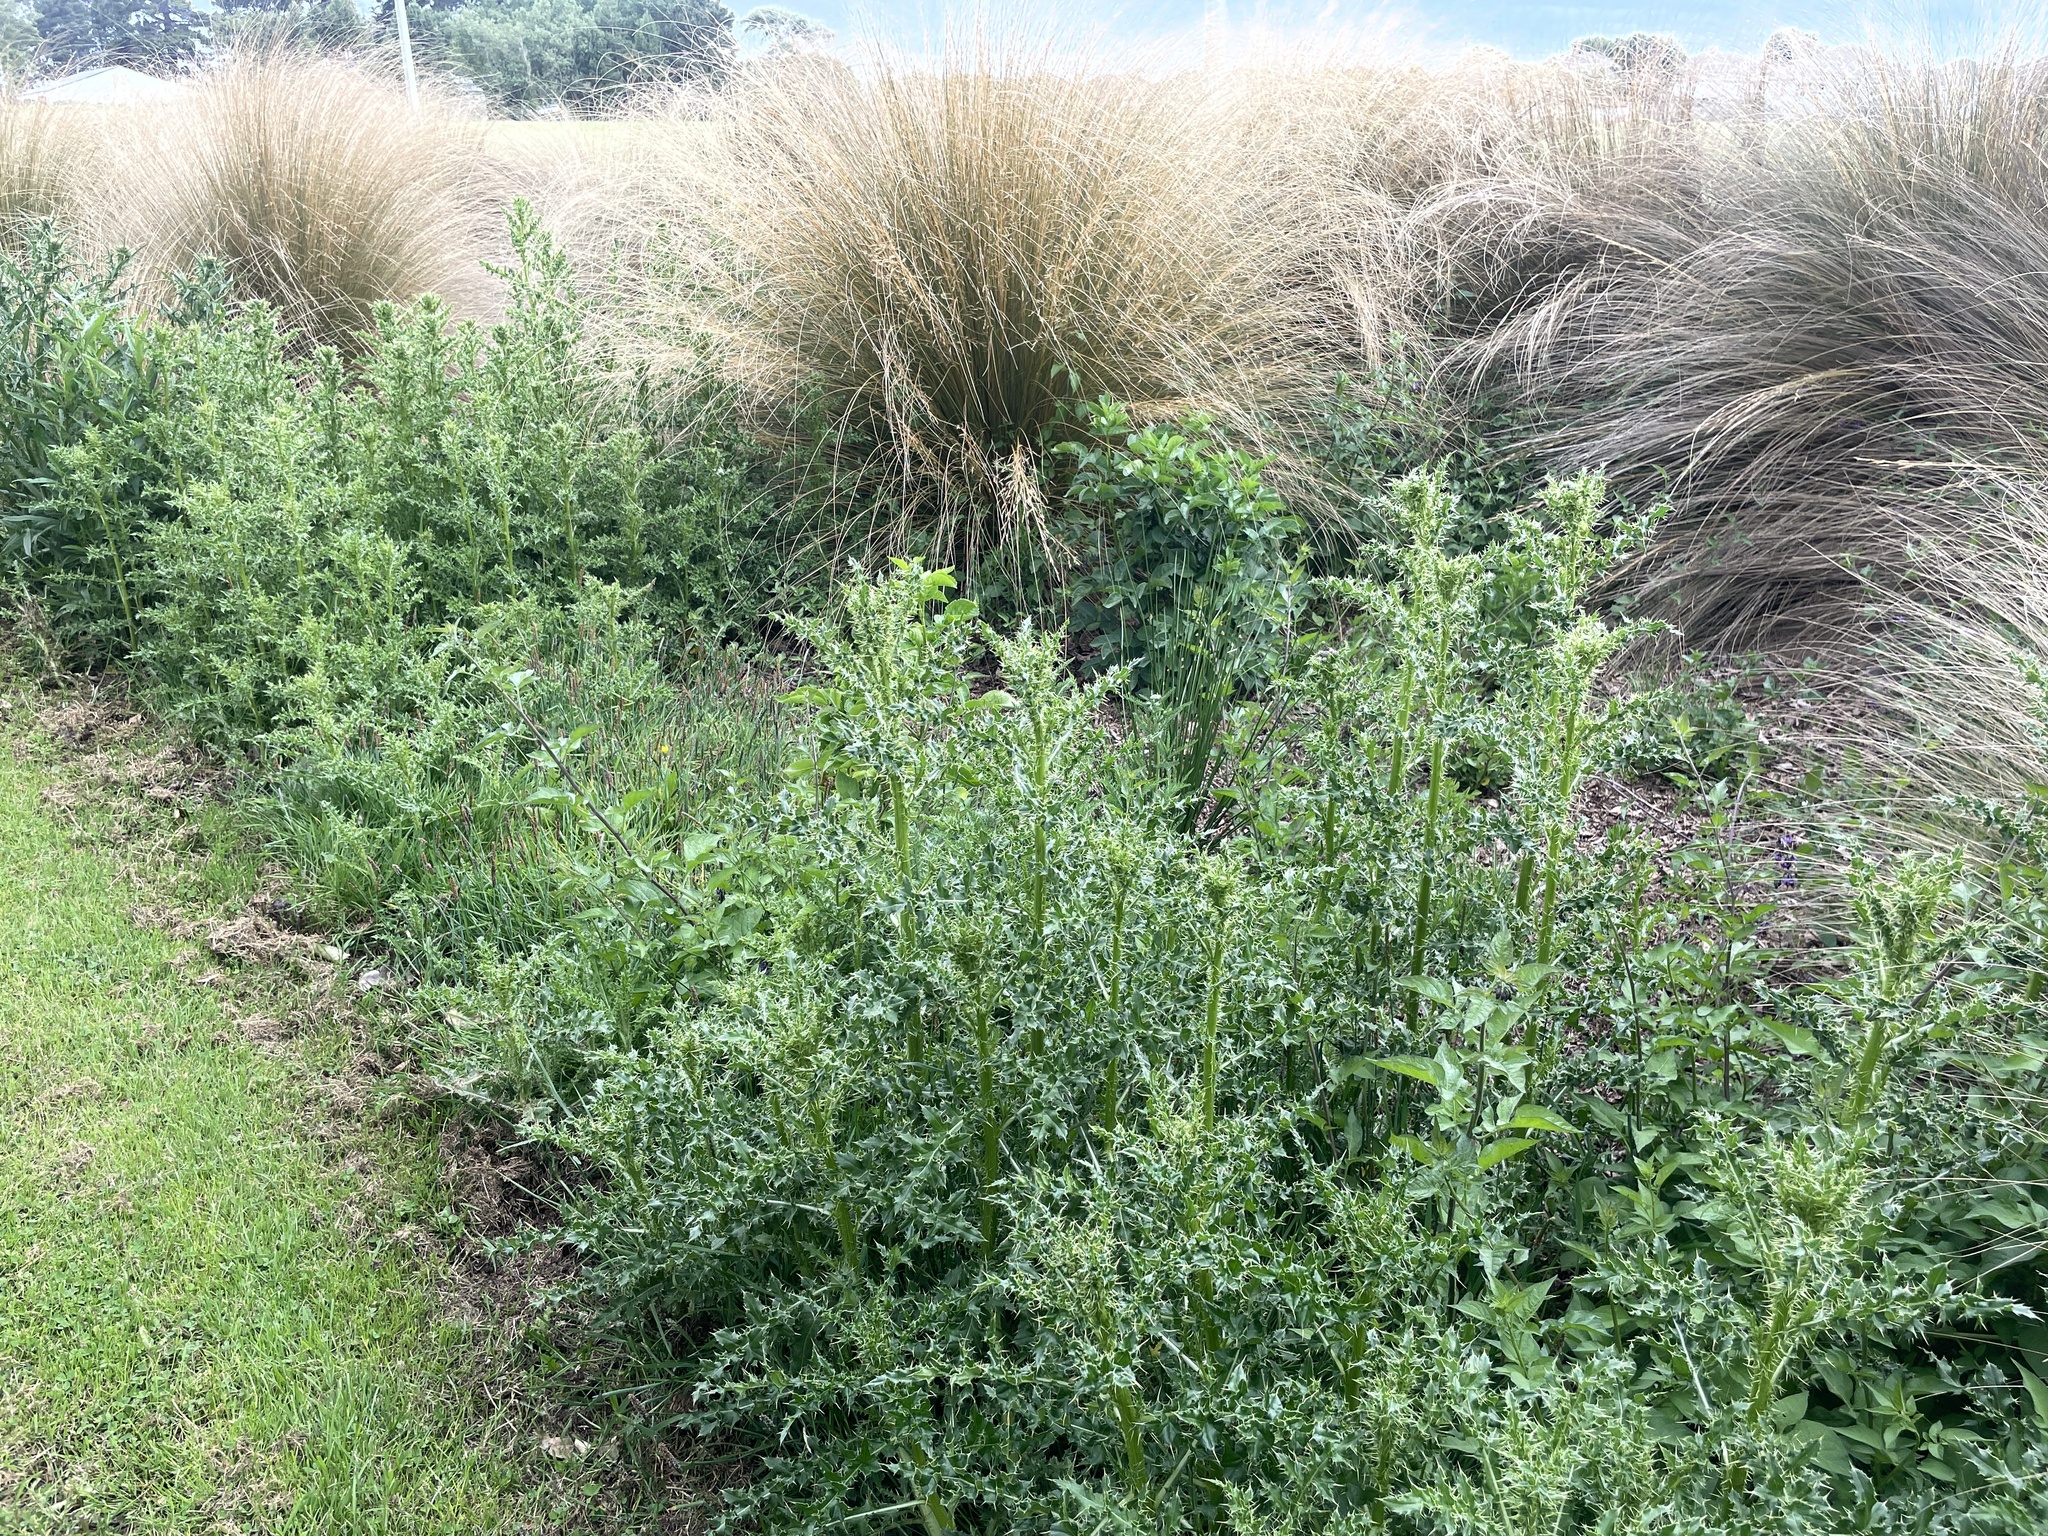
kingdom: Plantae
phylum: Tracheophyta
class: Magnoliopsida
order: Asterales
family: Asteraceae
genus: Cirsium
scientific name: Cirsium arvense
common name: Creeping thistle
